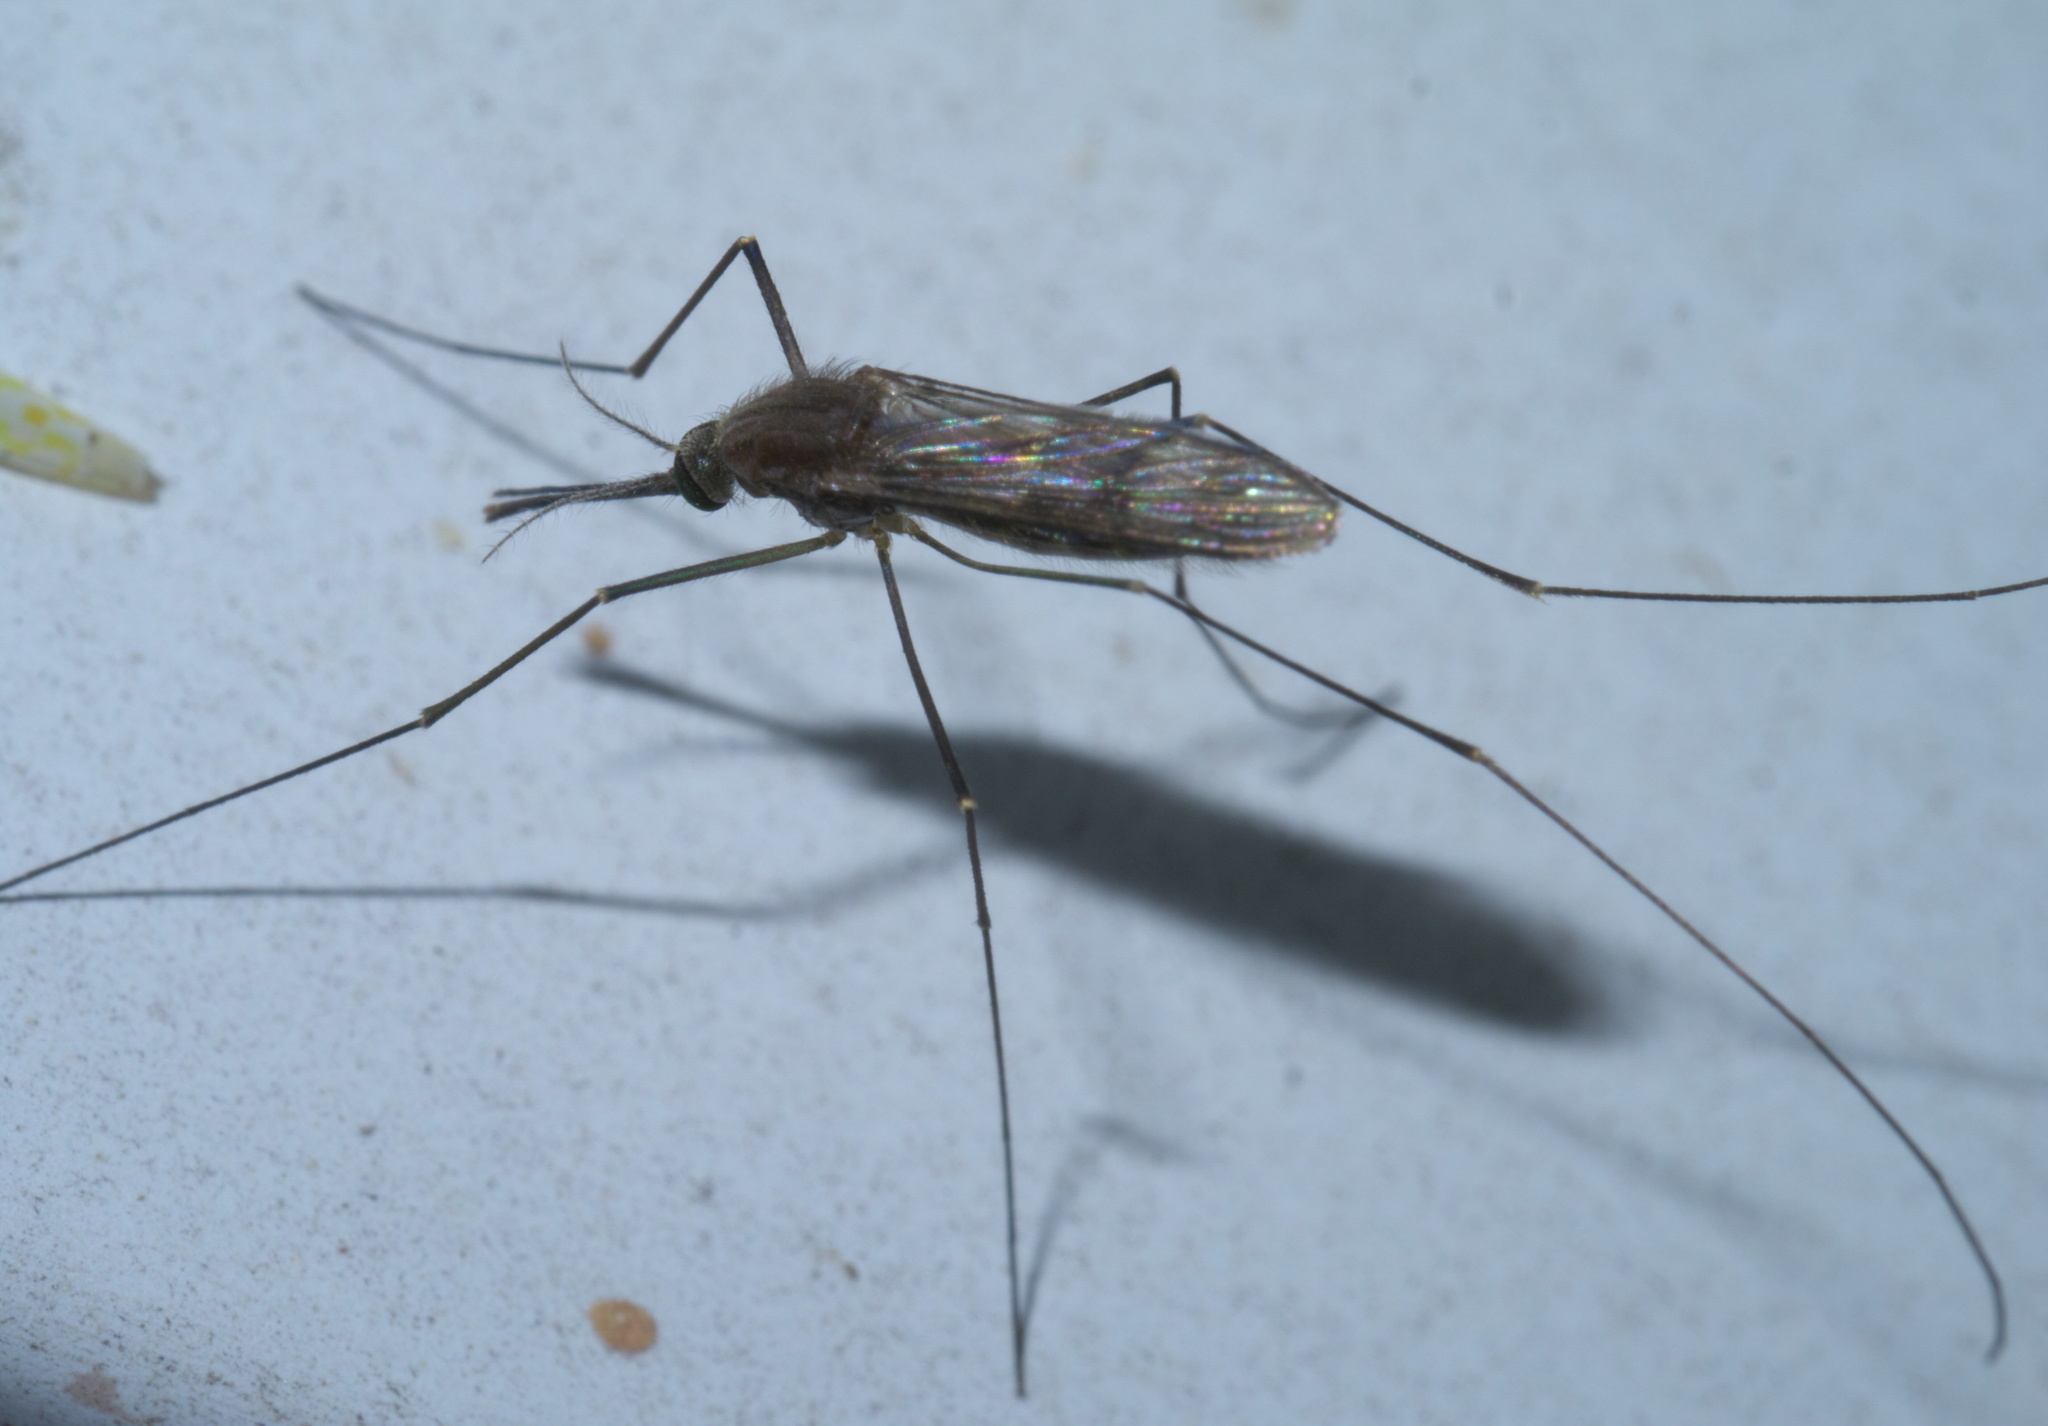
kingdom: Animalia
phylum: Arthropoda
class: Insecta
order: Diptera
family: Culicidae
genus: Anopheles
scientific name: Anopheles quadrimaculatus
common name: Common malaria mosquito
